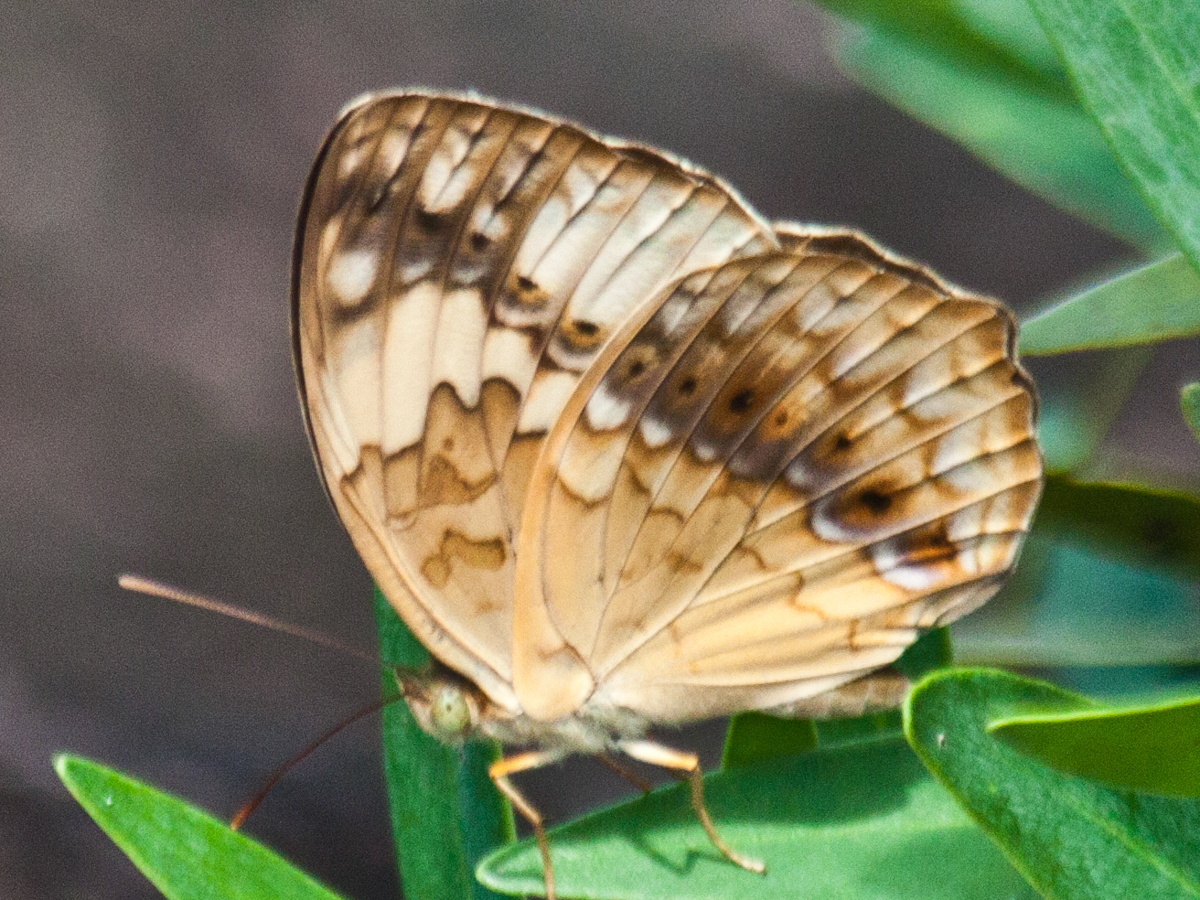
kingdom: Animalia
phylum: Arthropoda
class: Insecta
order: Lepidoptera
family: Nymphalidae
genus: Cupha
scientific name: Cupha erymanthis
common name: Rustic
